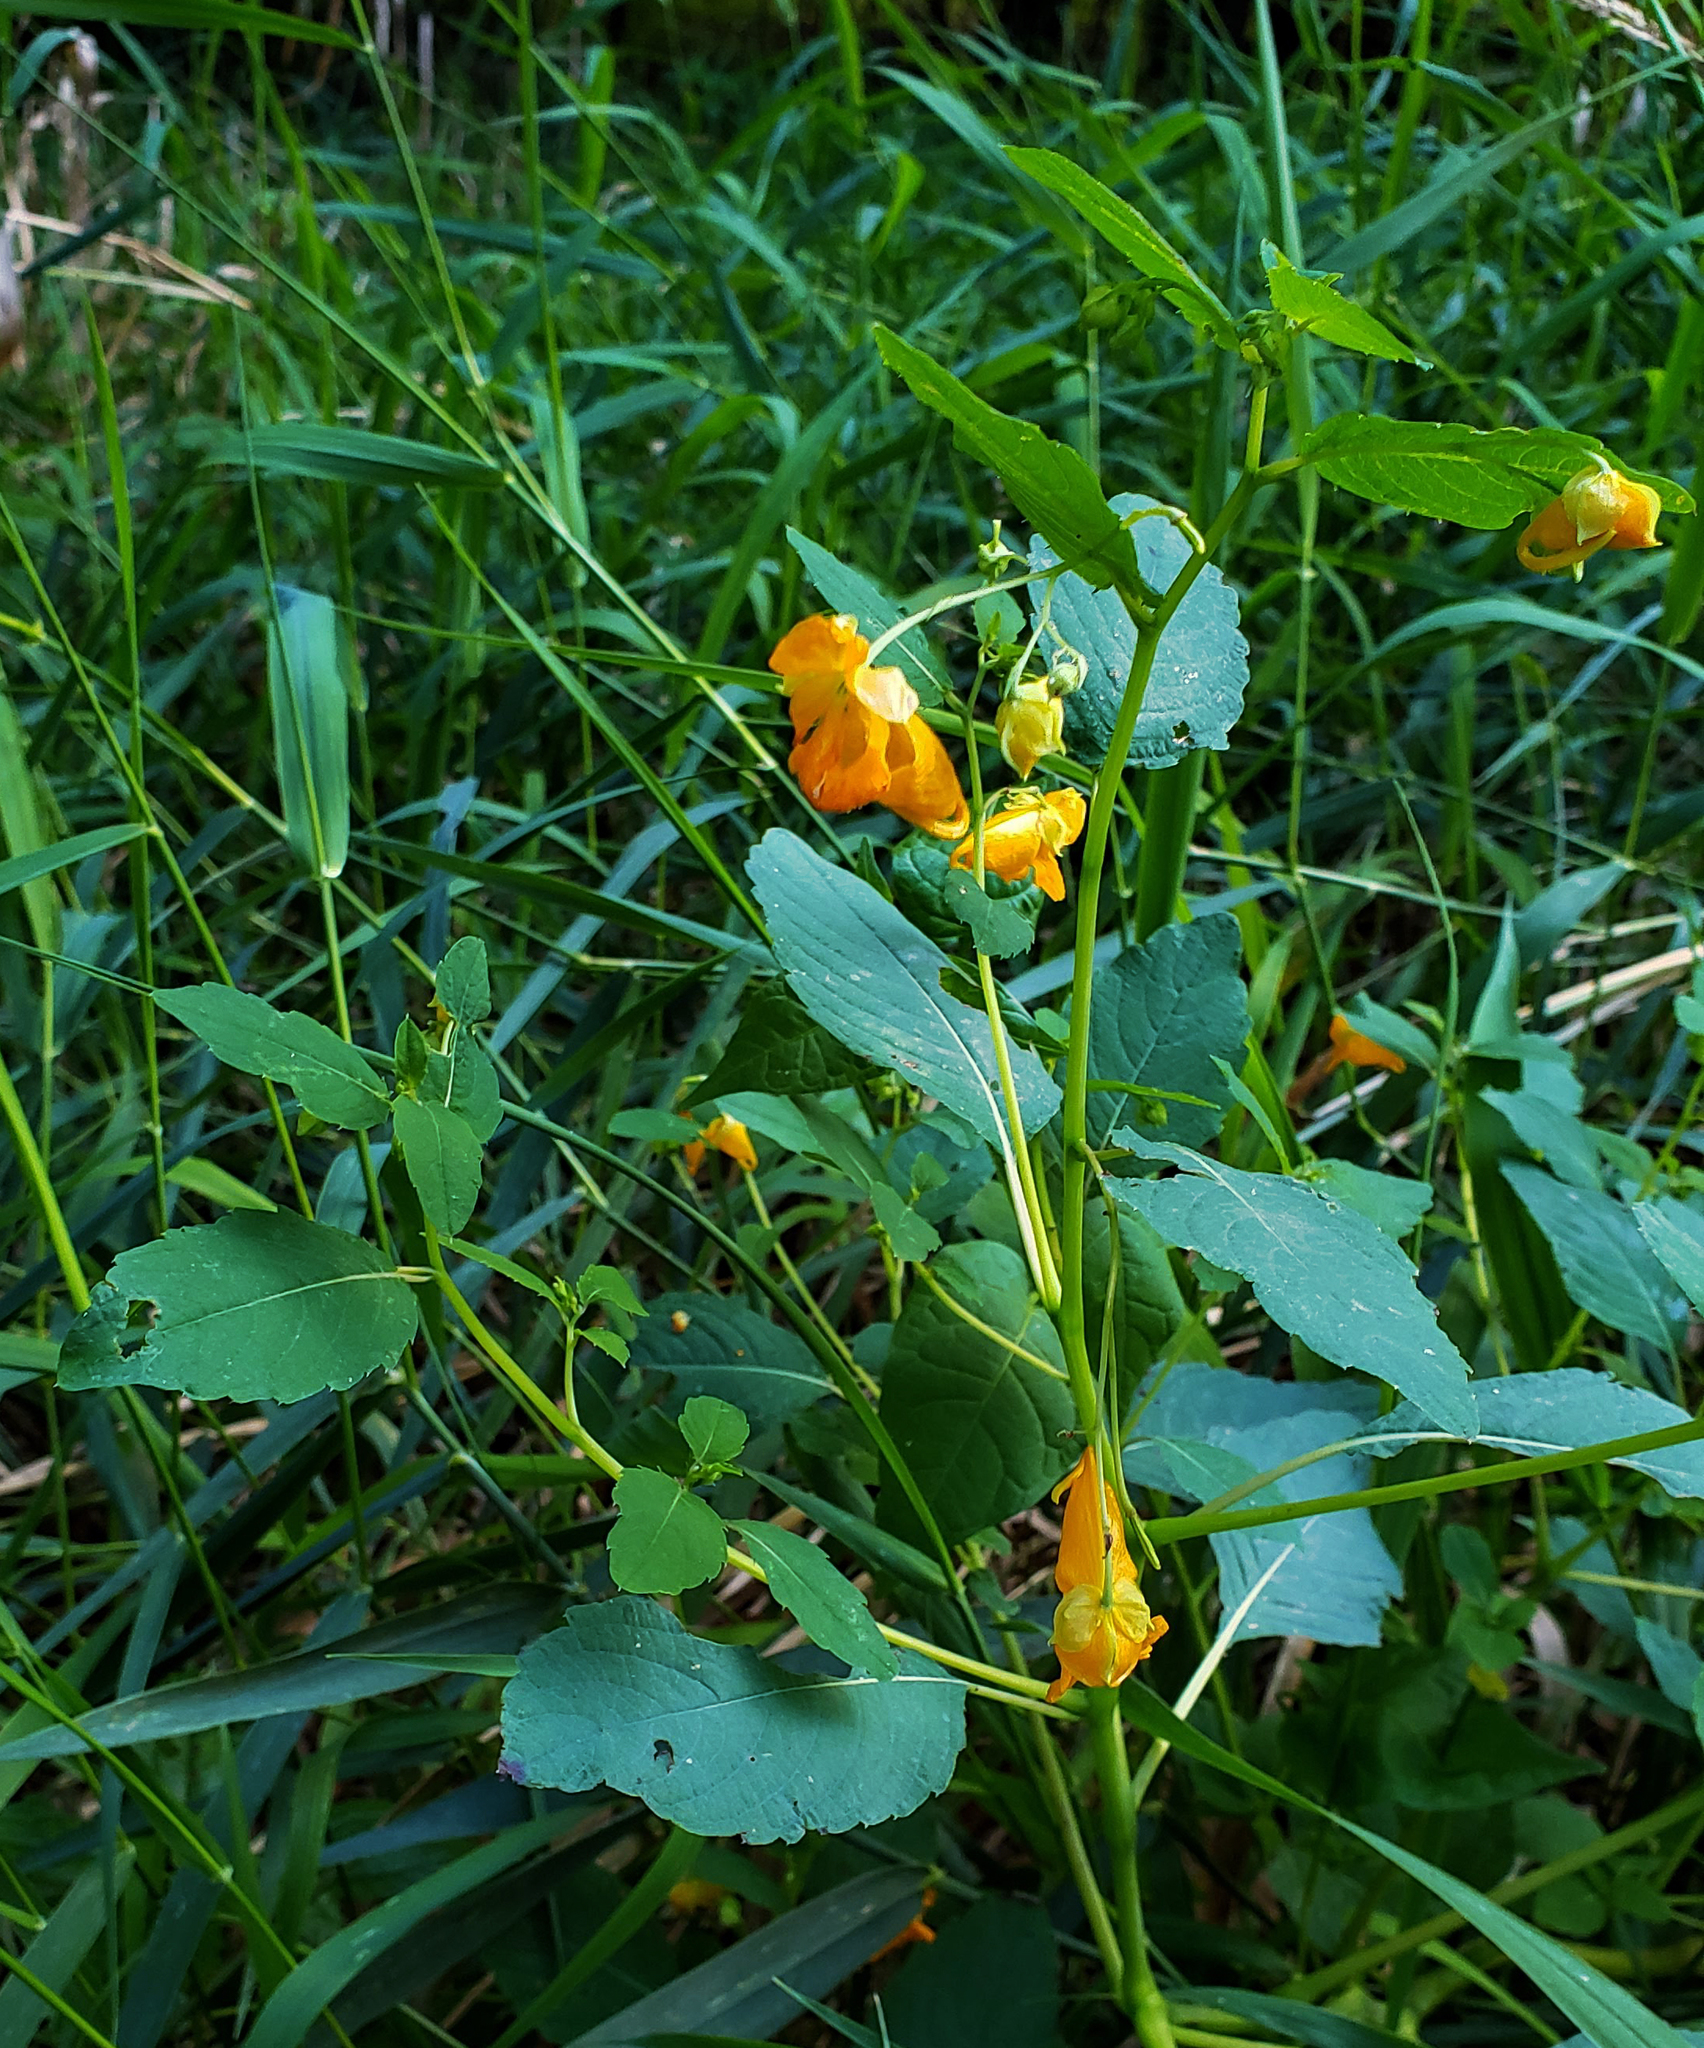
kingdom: Plantae
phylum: Tracheophyta
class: Magnoliopsida
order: Ericales
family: Balsaminaceae
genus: Impatiens
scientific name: Impatiens capensis
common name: Orange balsam
